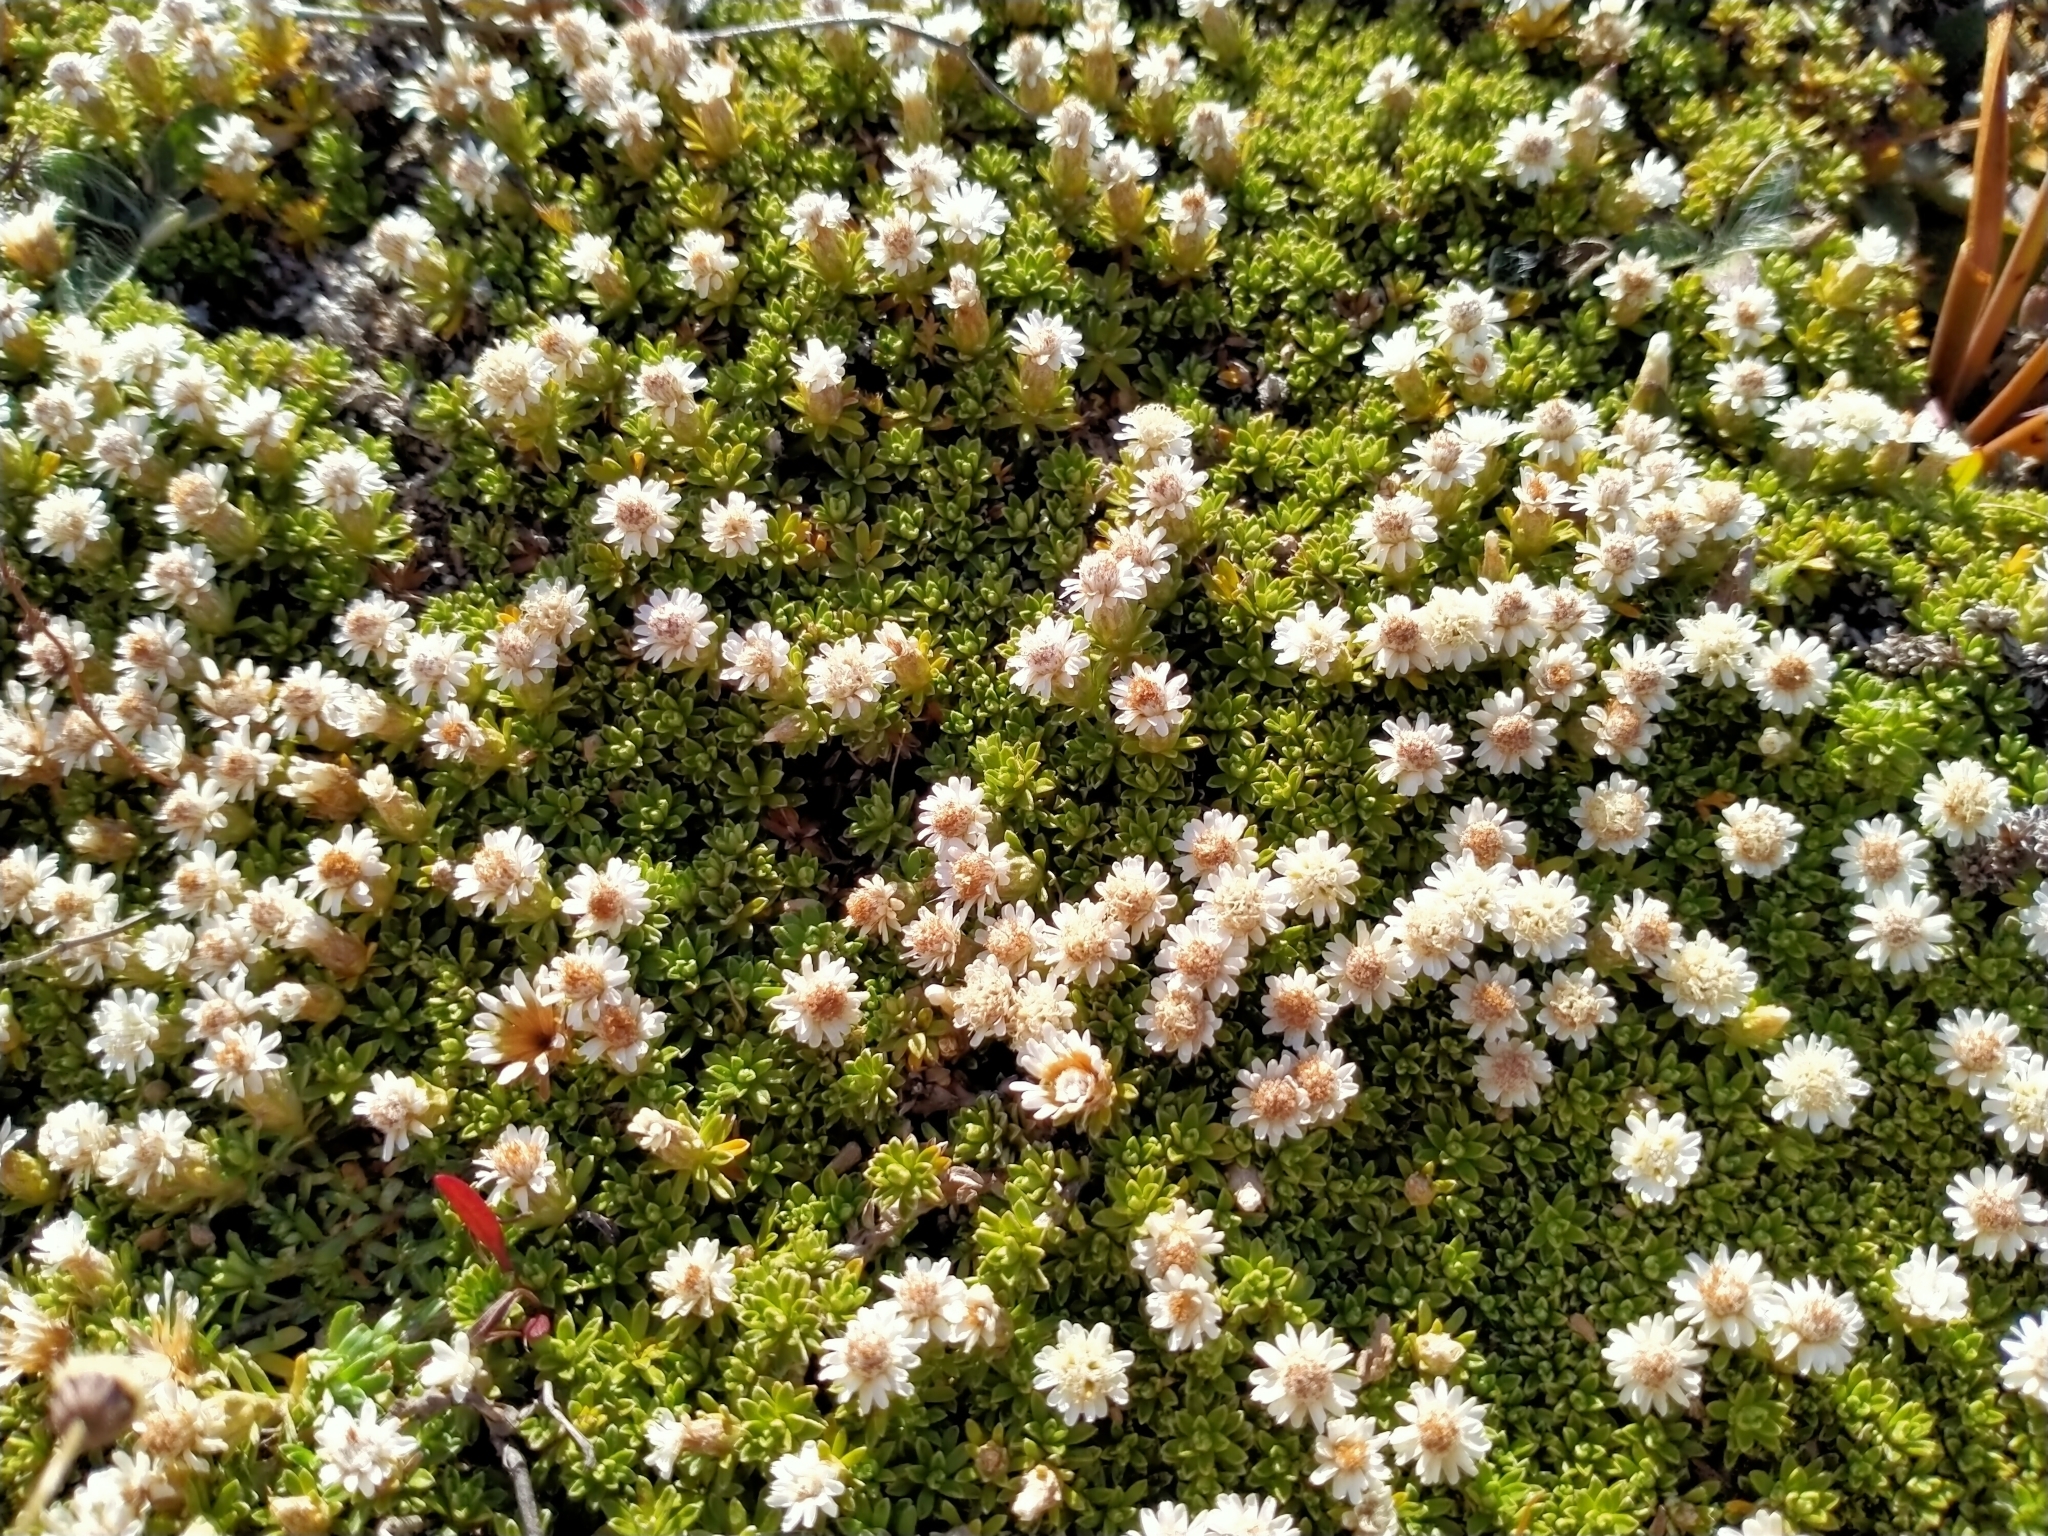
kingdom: Plantae
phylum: Tracheophyta
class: Magnoliopsida
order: Asterales
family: Asteraceae
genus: Raoulia
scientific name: Raoulia subsericea
